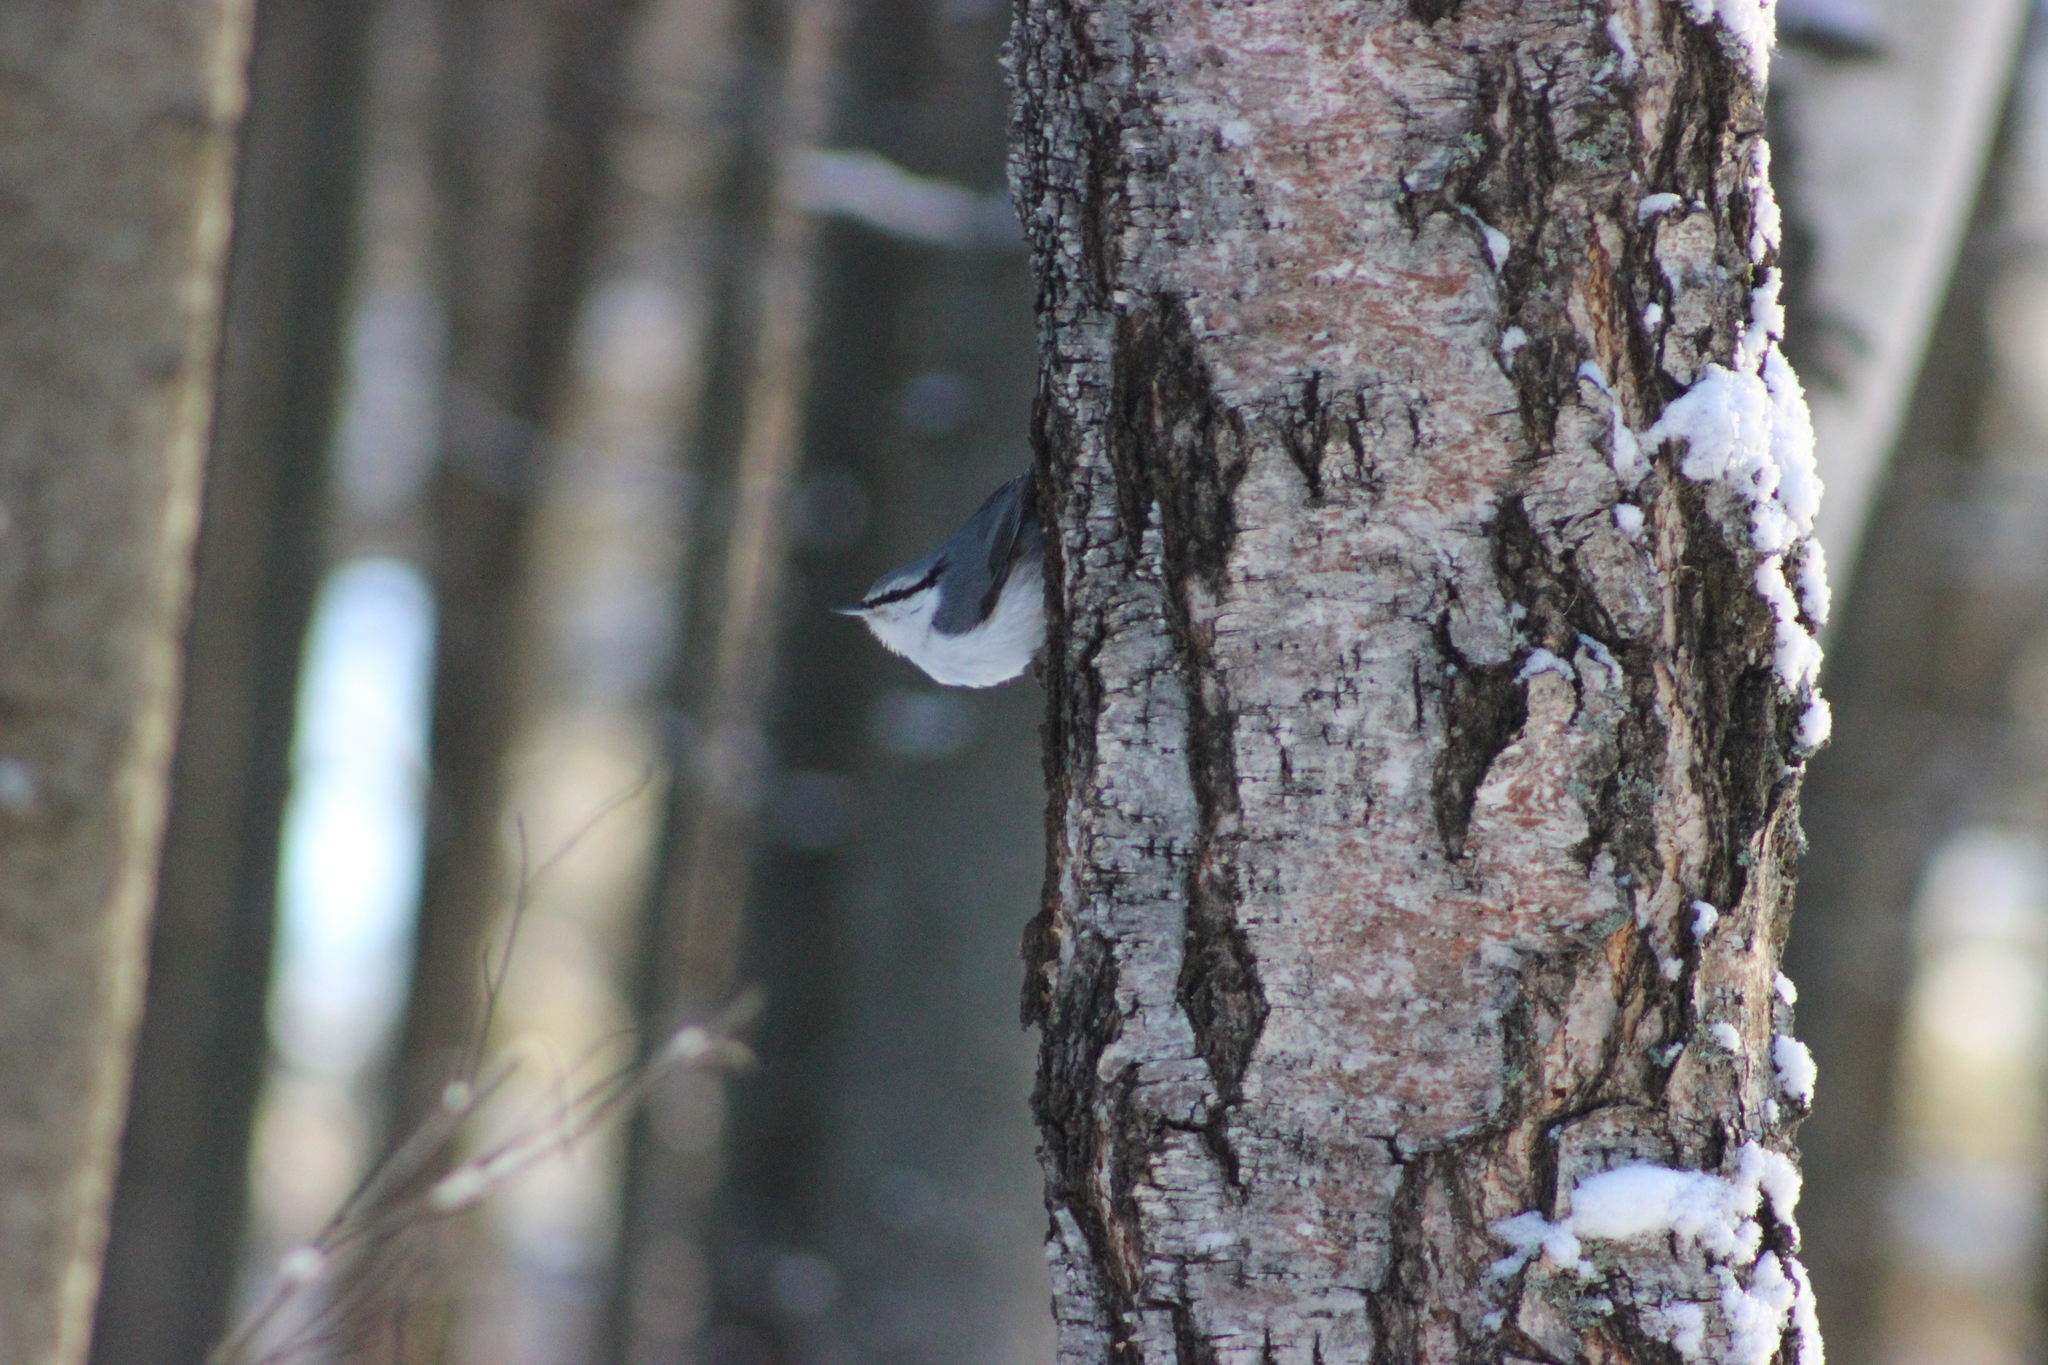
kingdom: Animalia
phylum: Chordata
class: Aves
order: Passeriformes
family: Sittidae
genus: Sitta
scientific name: Sitta europaea
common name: Eurasian nuthatch
